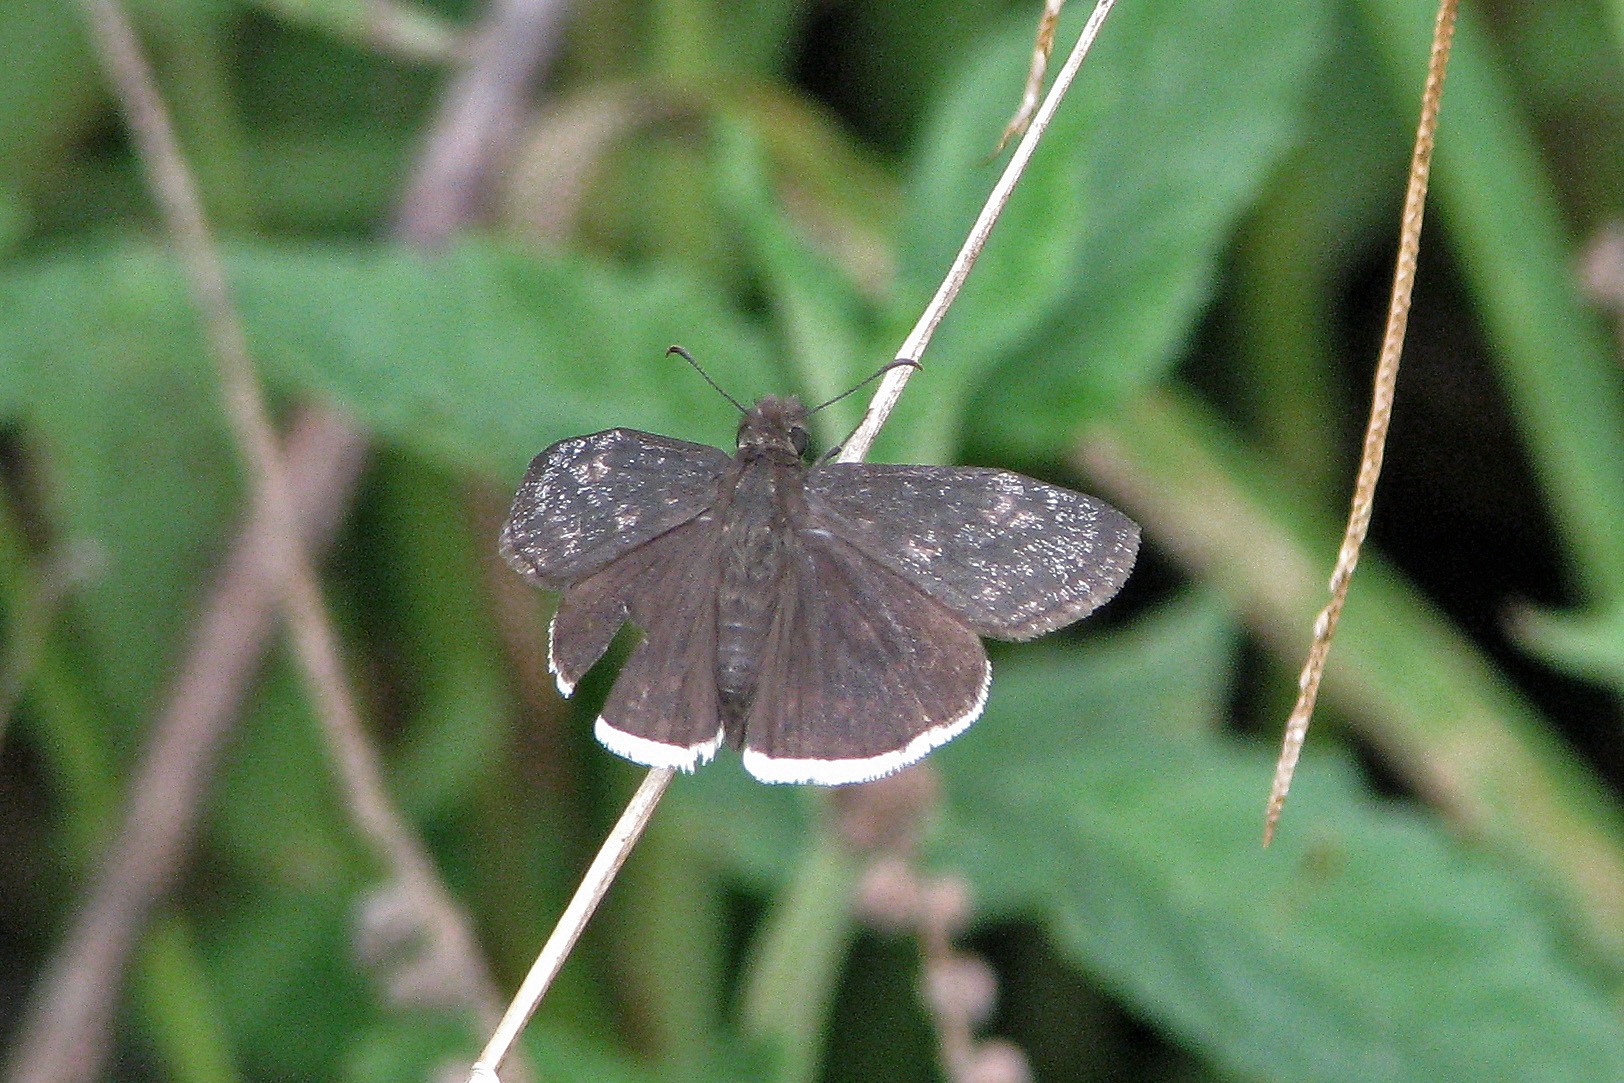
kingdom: Animalia
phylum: Arthropoda
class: Insecta
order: Lepidoptera
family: Hesperiidae
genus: Erynnis
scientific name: Erynnis funeralis
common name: Funereal duskywing
